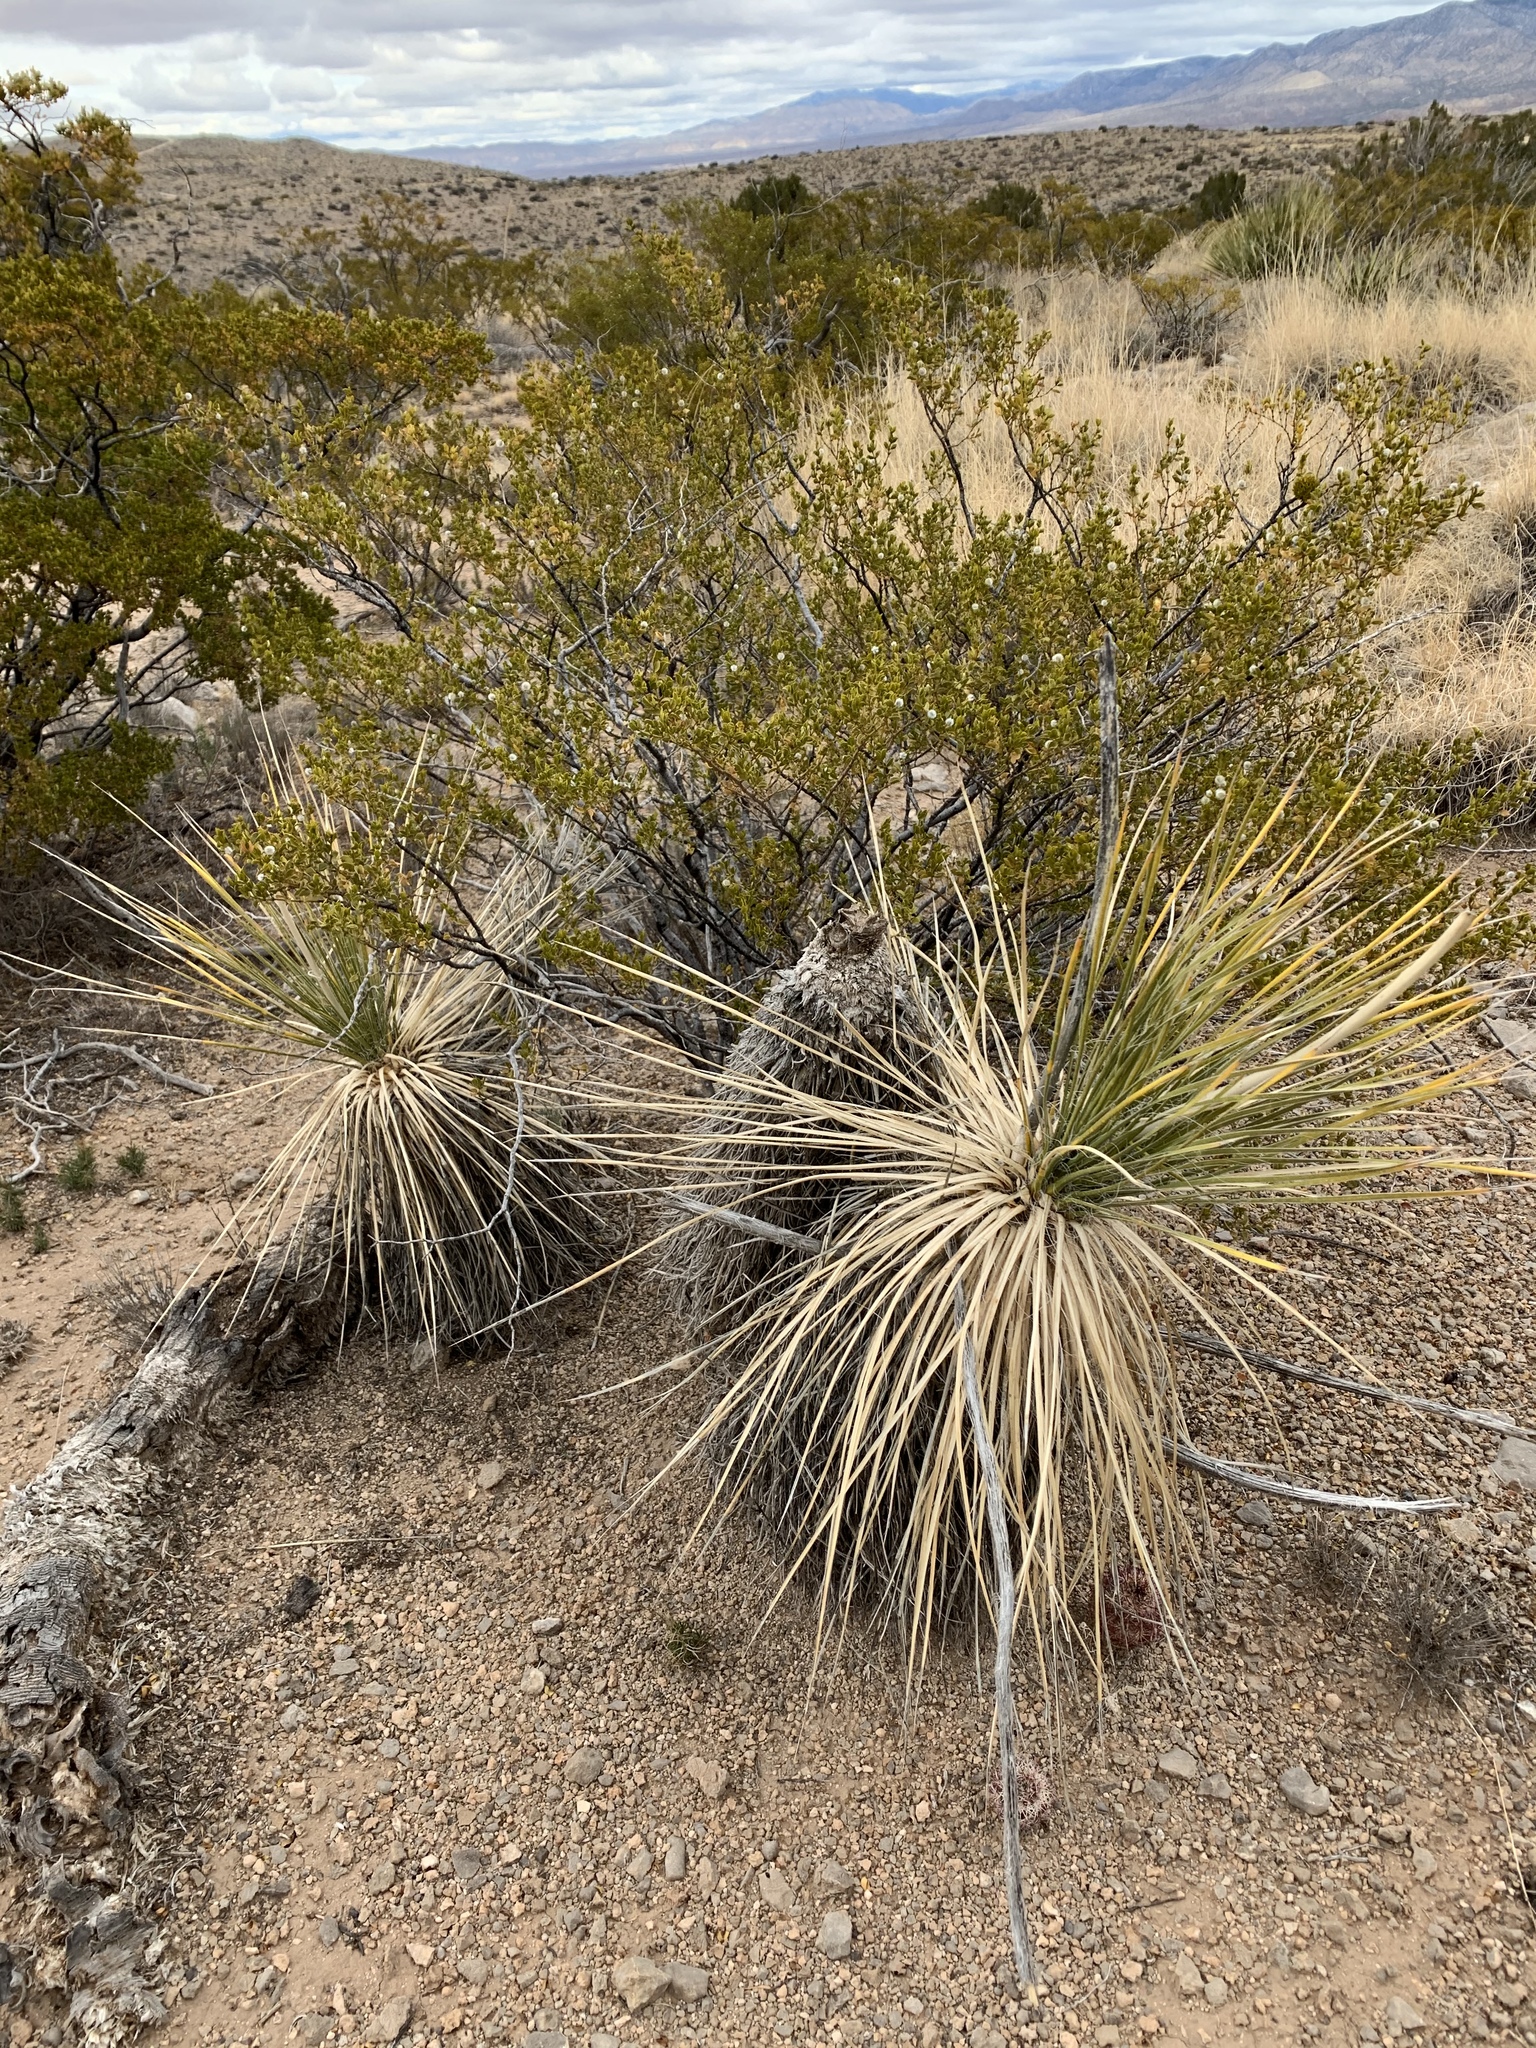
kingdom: Plantae
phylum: Tracheophyta
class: Liliopsida
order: Asparagales
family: Asparagaceae
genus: Yucca
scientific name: Yucca elata
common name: Palmella
